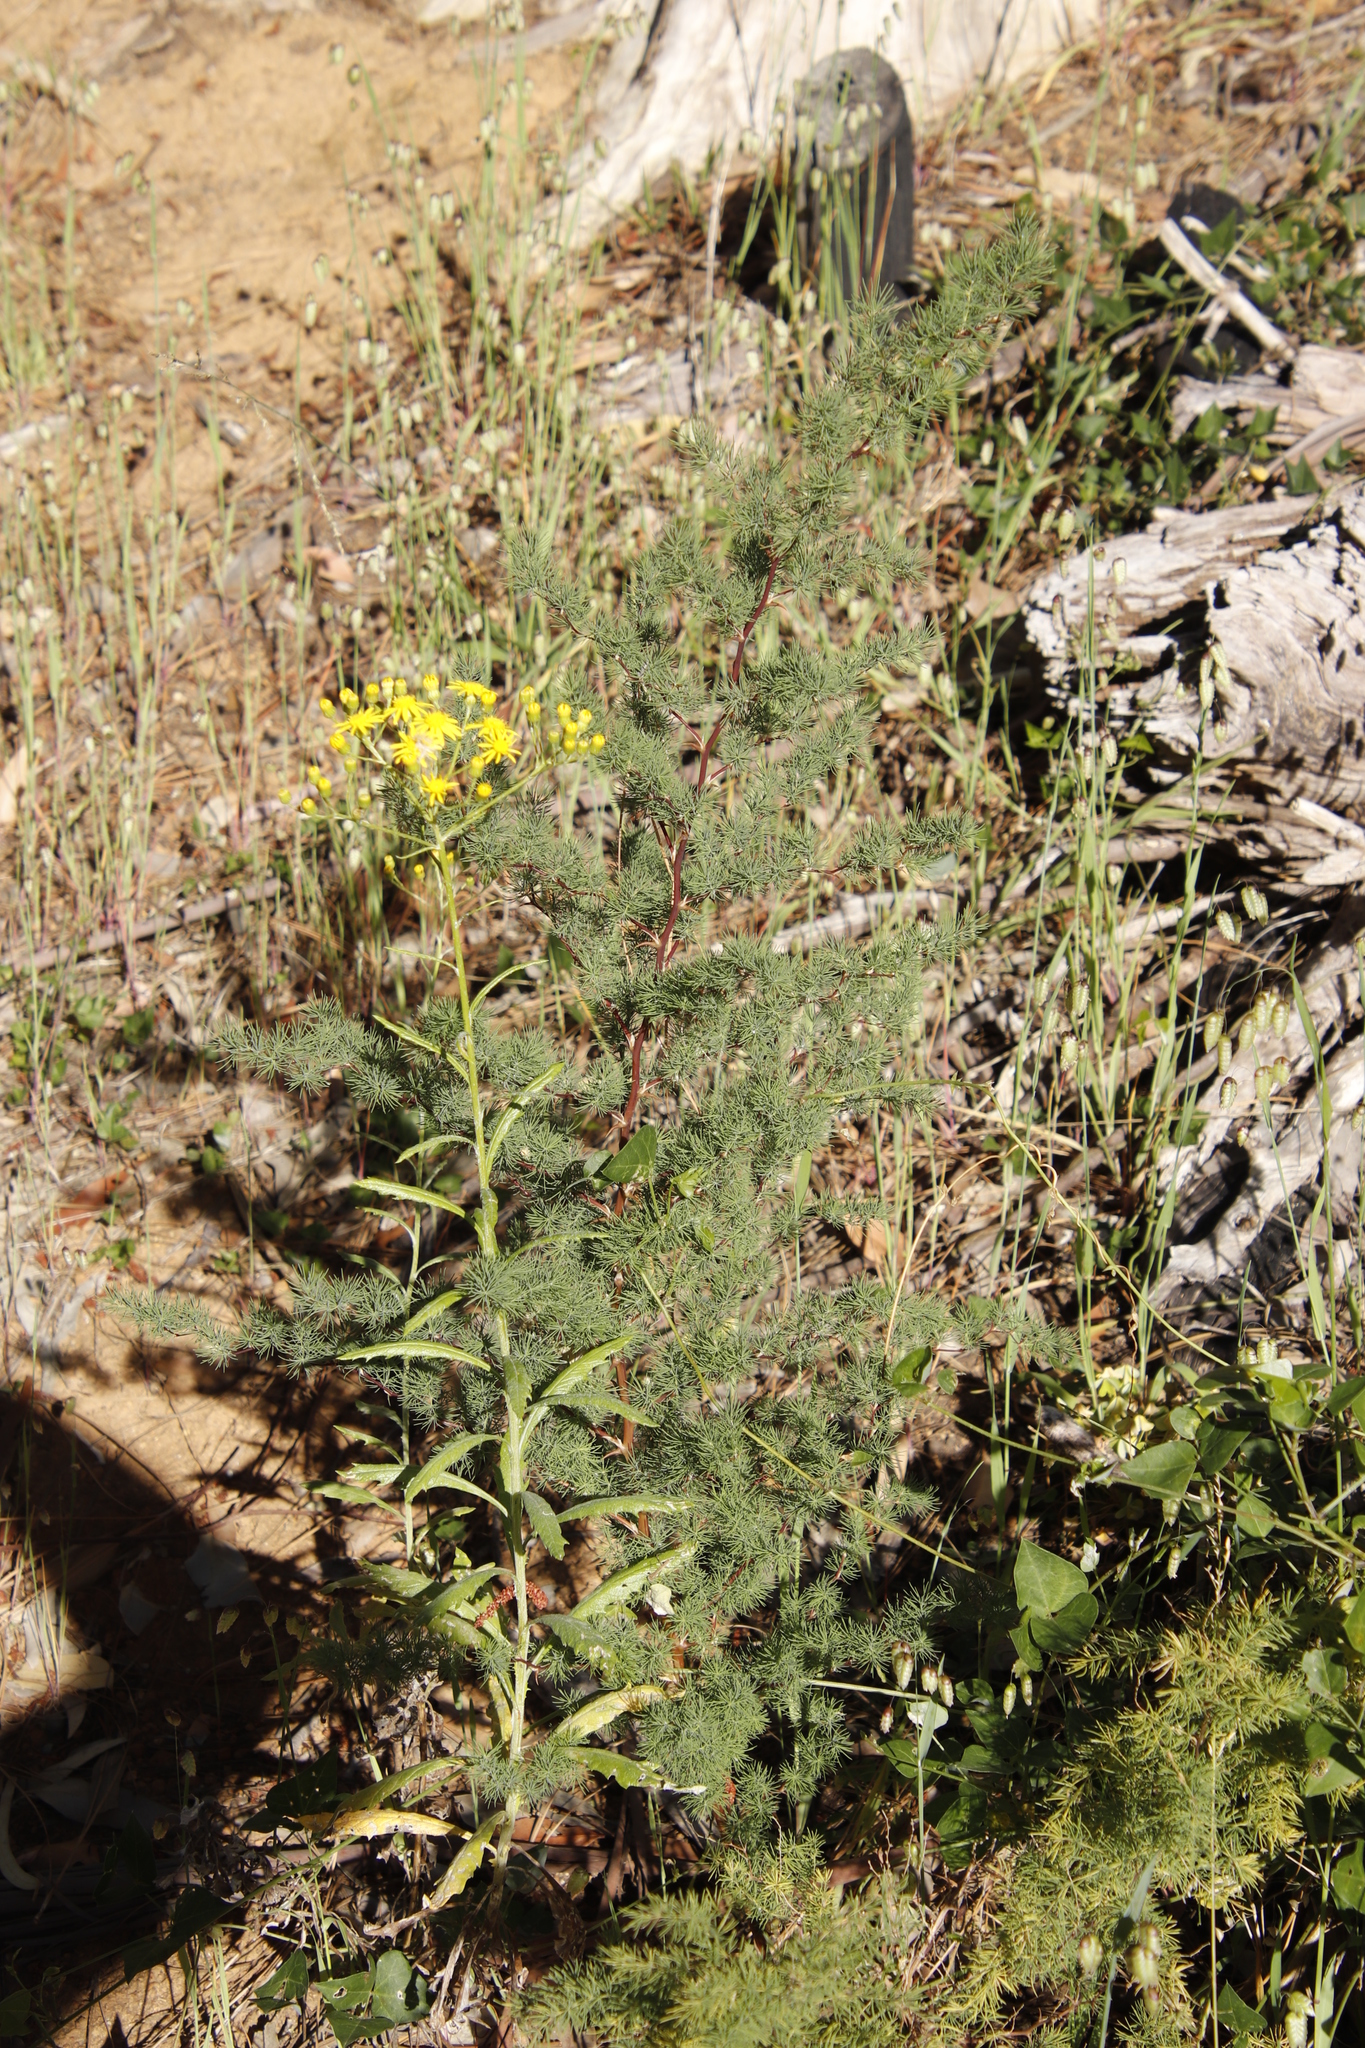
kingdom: Plantae
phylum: Tracheophyta
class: Liliopsida
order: Asparagales
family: Asparagaceae
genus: Asparagus
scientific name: Asparagus rubicundus
